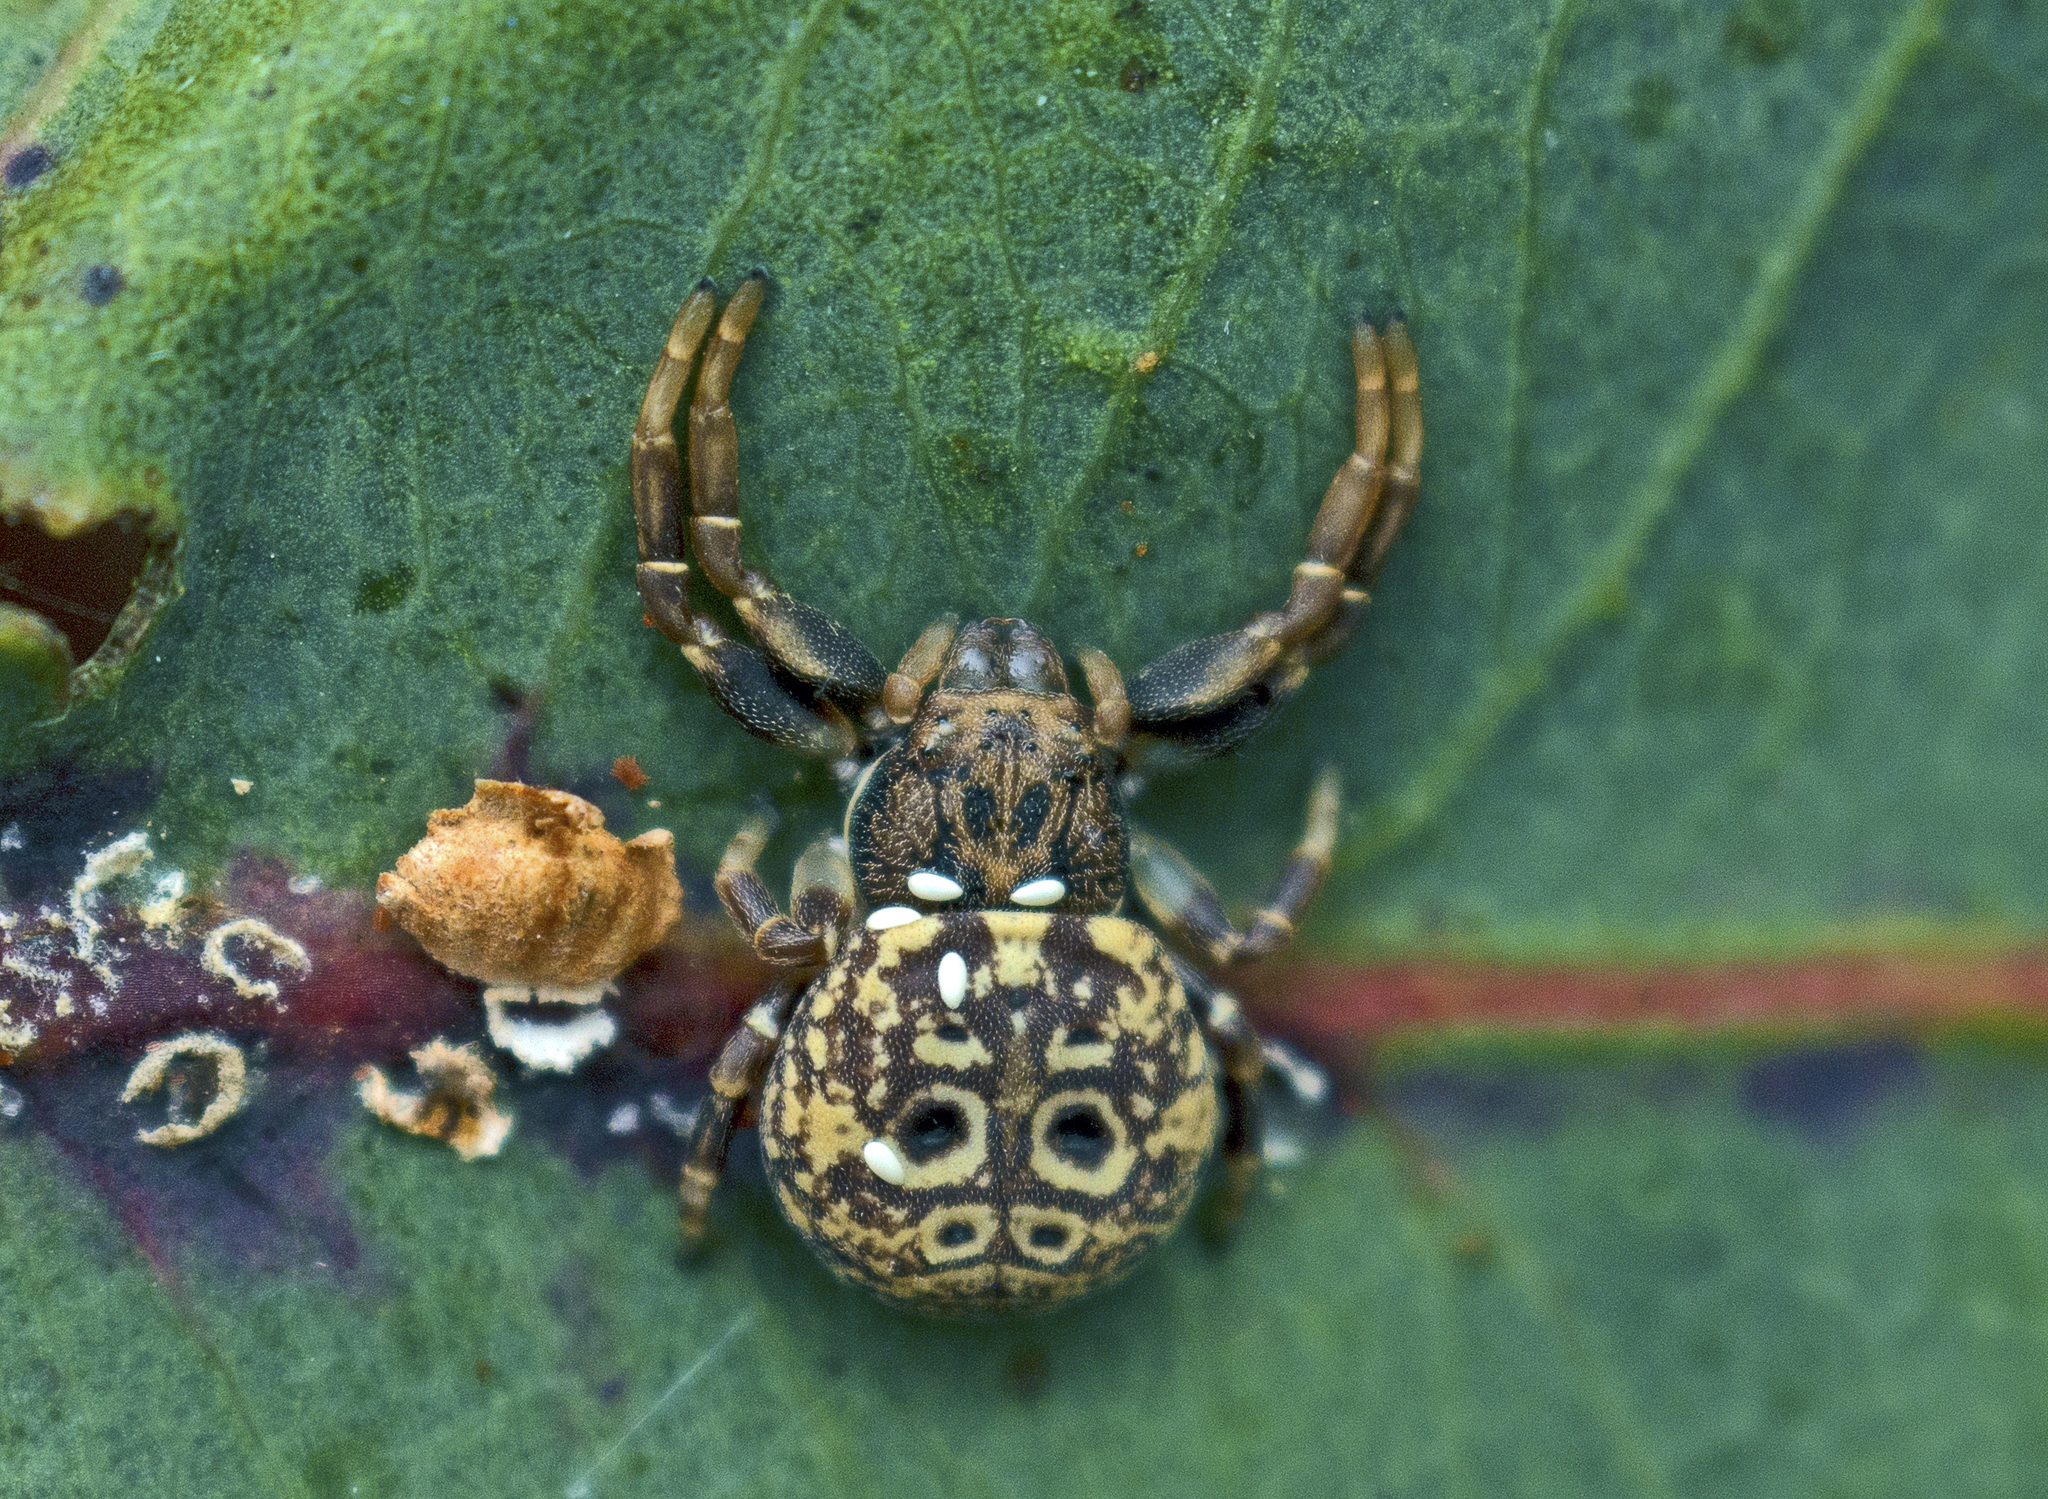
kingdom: Animalia
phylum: Arthropoda
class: Arachnida
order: Araneae
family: Thomisidae
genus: Cymbacha
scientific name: Cymbacha ocellata
